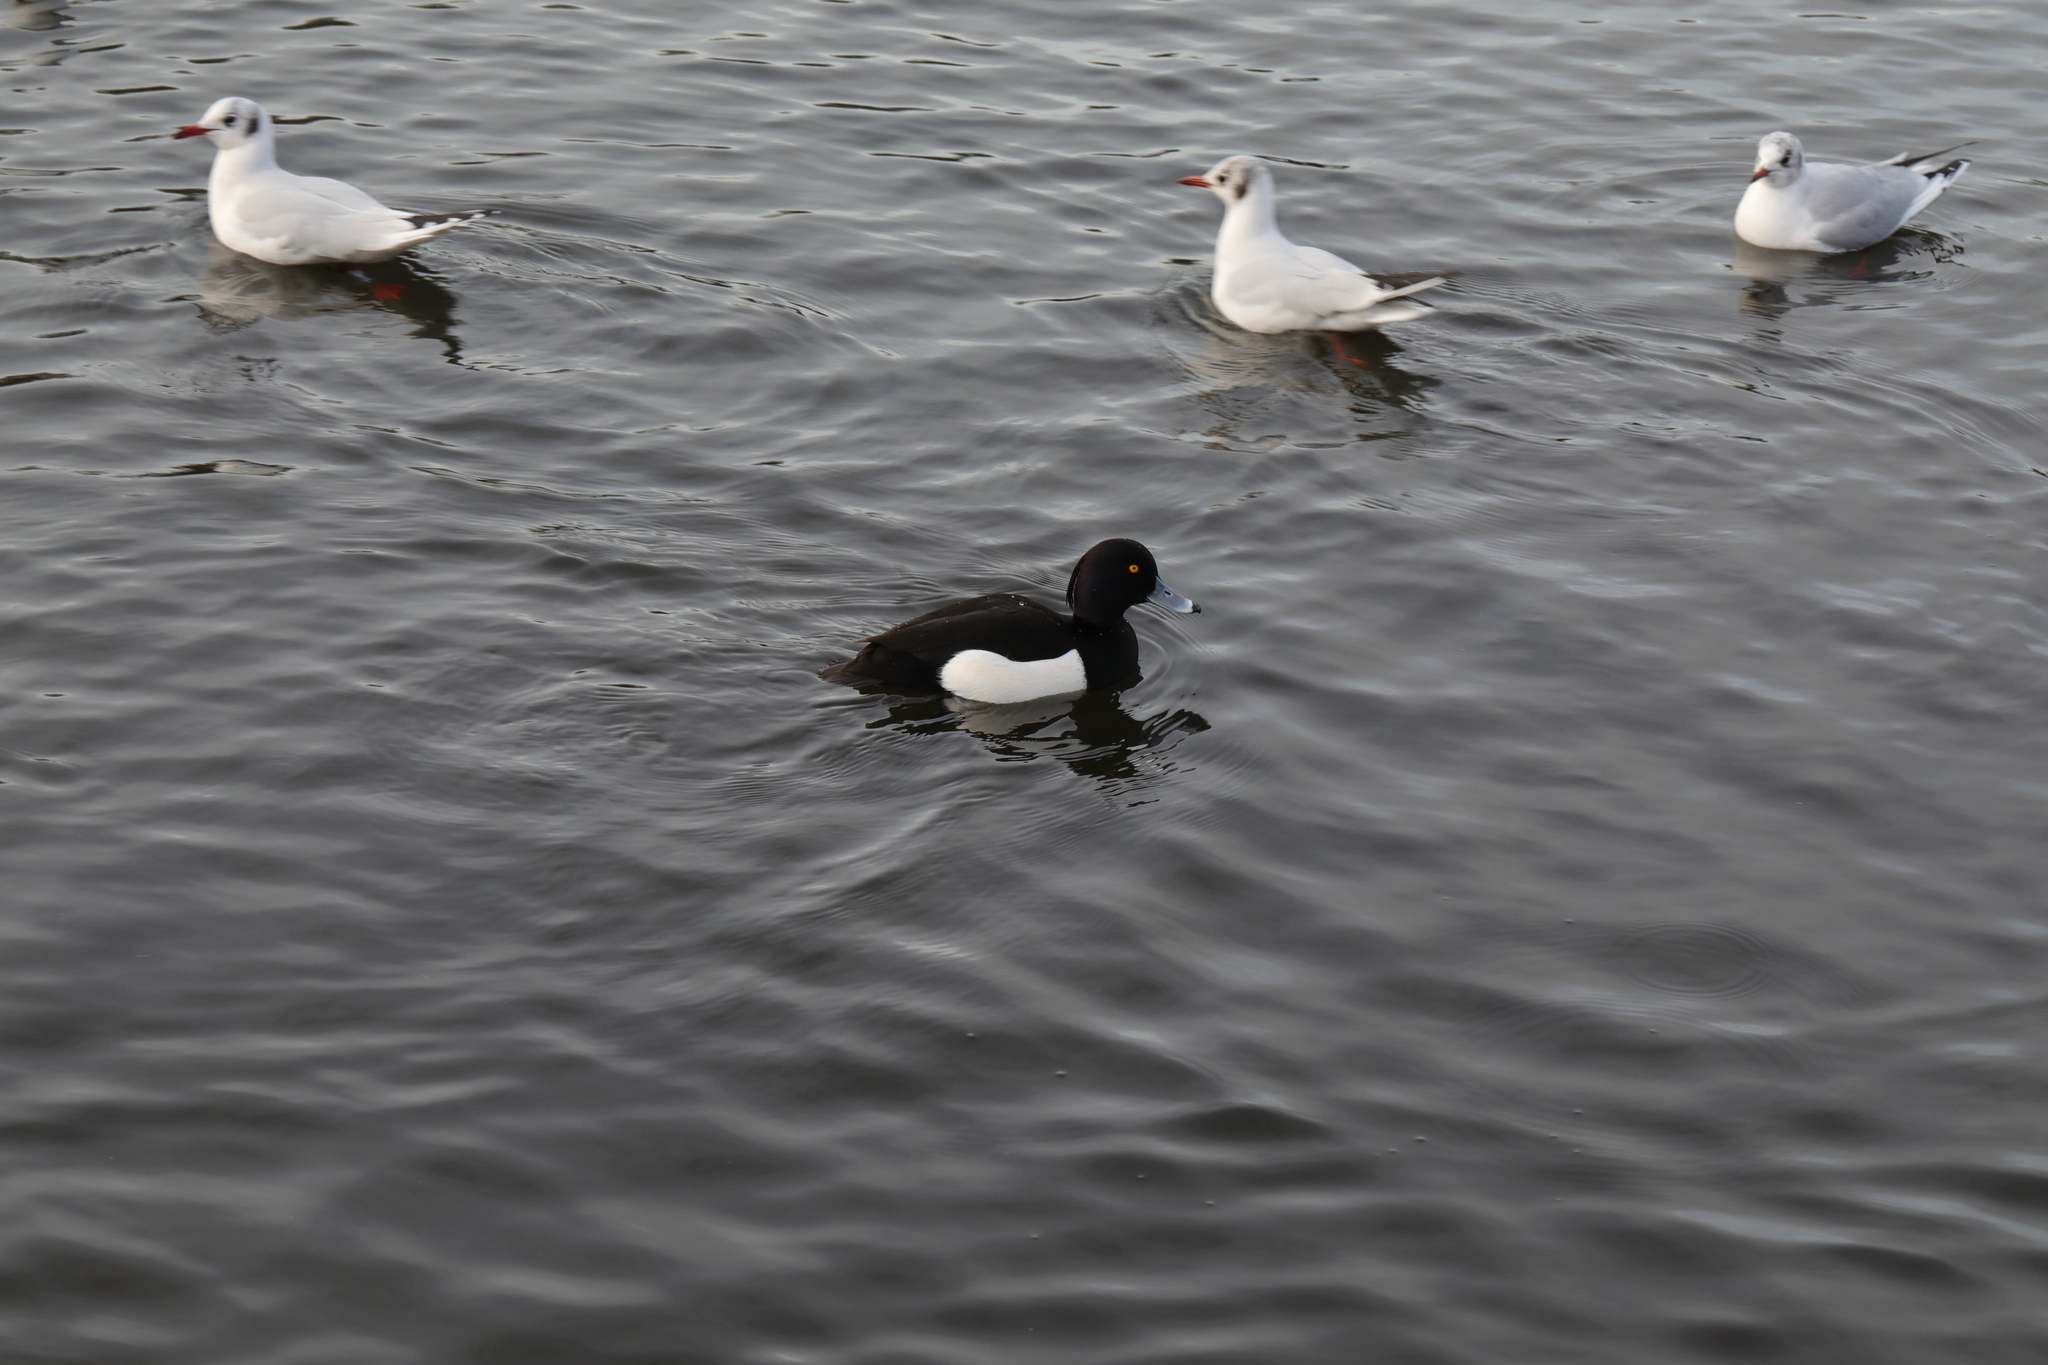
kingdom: Animalia
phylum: Chordata
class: Aves
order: Anseriformes
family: Anatidae
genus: Aythya
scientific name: Aythya fuligula
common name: Tufted duck
